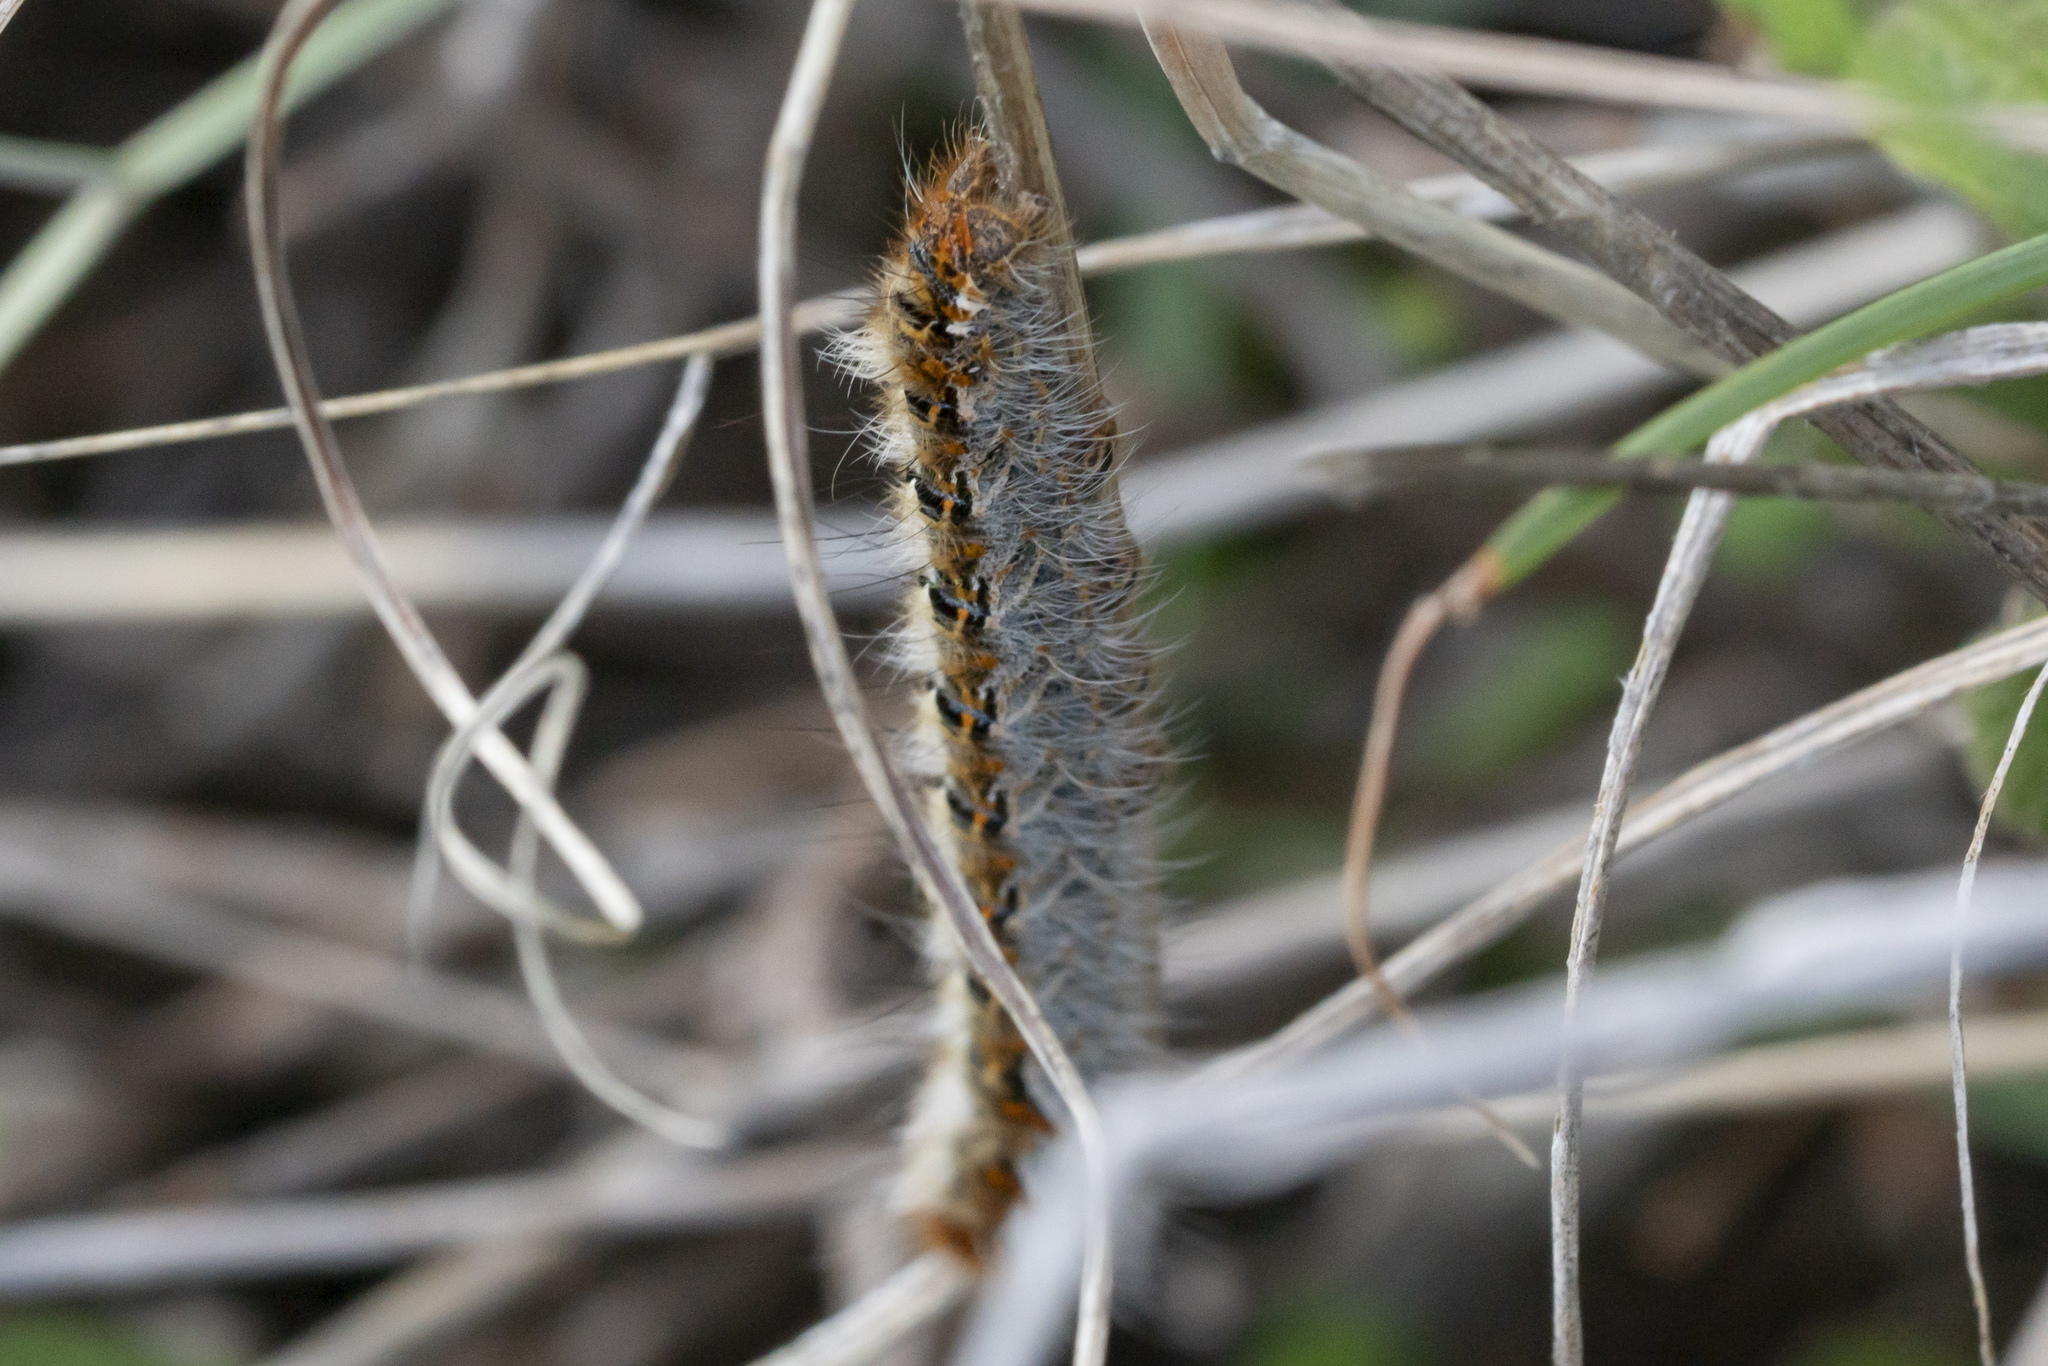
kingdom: Animalia
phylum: Arthropoda
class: Insecta
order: Lepidoptera
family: Lasiocampidae
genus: Lasiocampa
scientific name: Lasiocampa grandis
